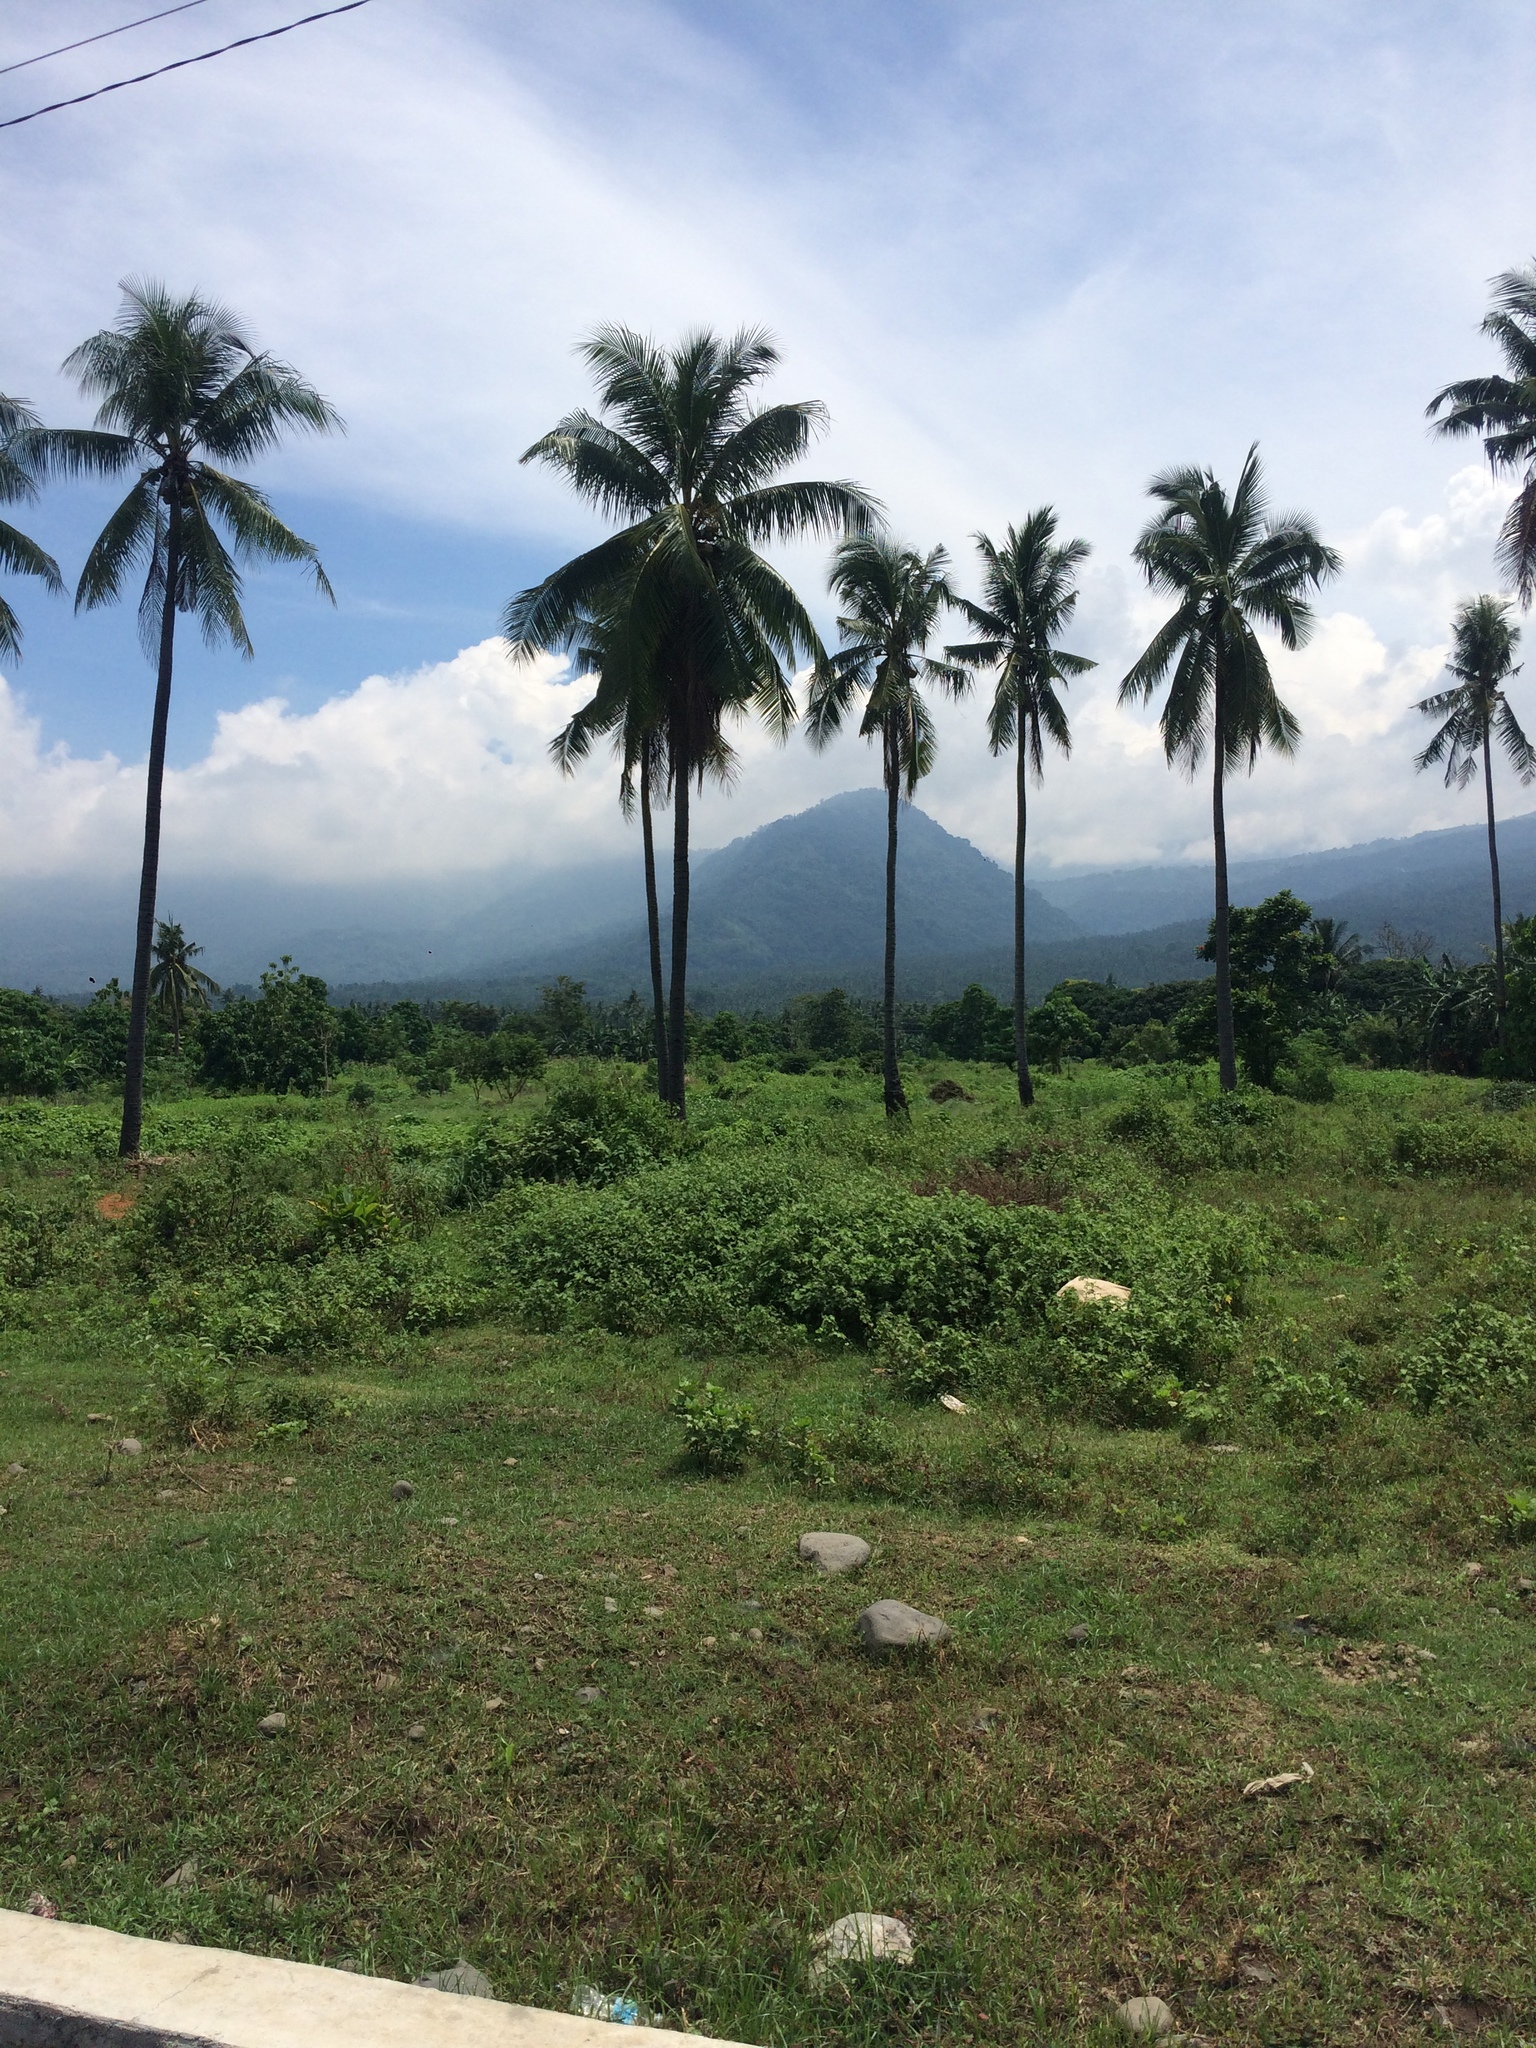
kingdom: Plantae
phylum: Tracheophyta
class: Liliopsida
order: Arecales
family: Arecaceae
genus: Cocos
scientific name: Cocos nucifera
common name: Coconut palm
